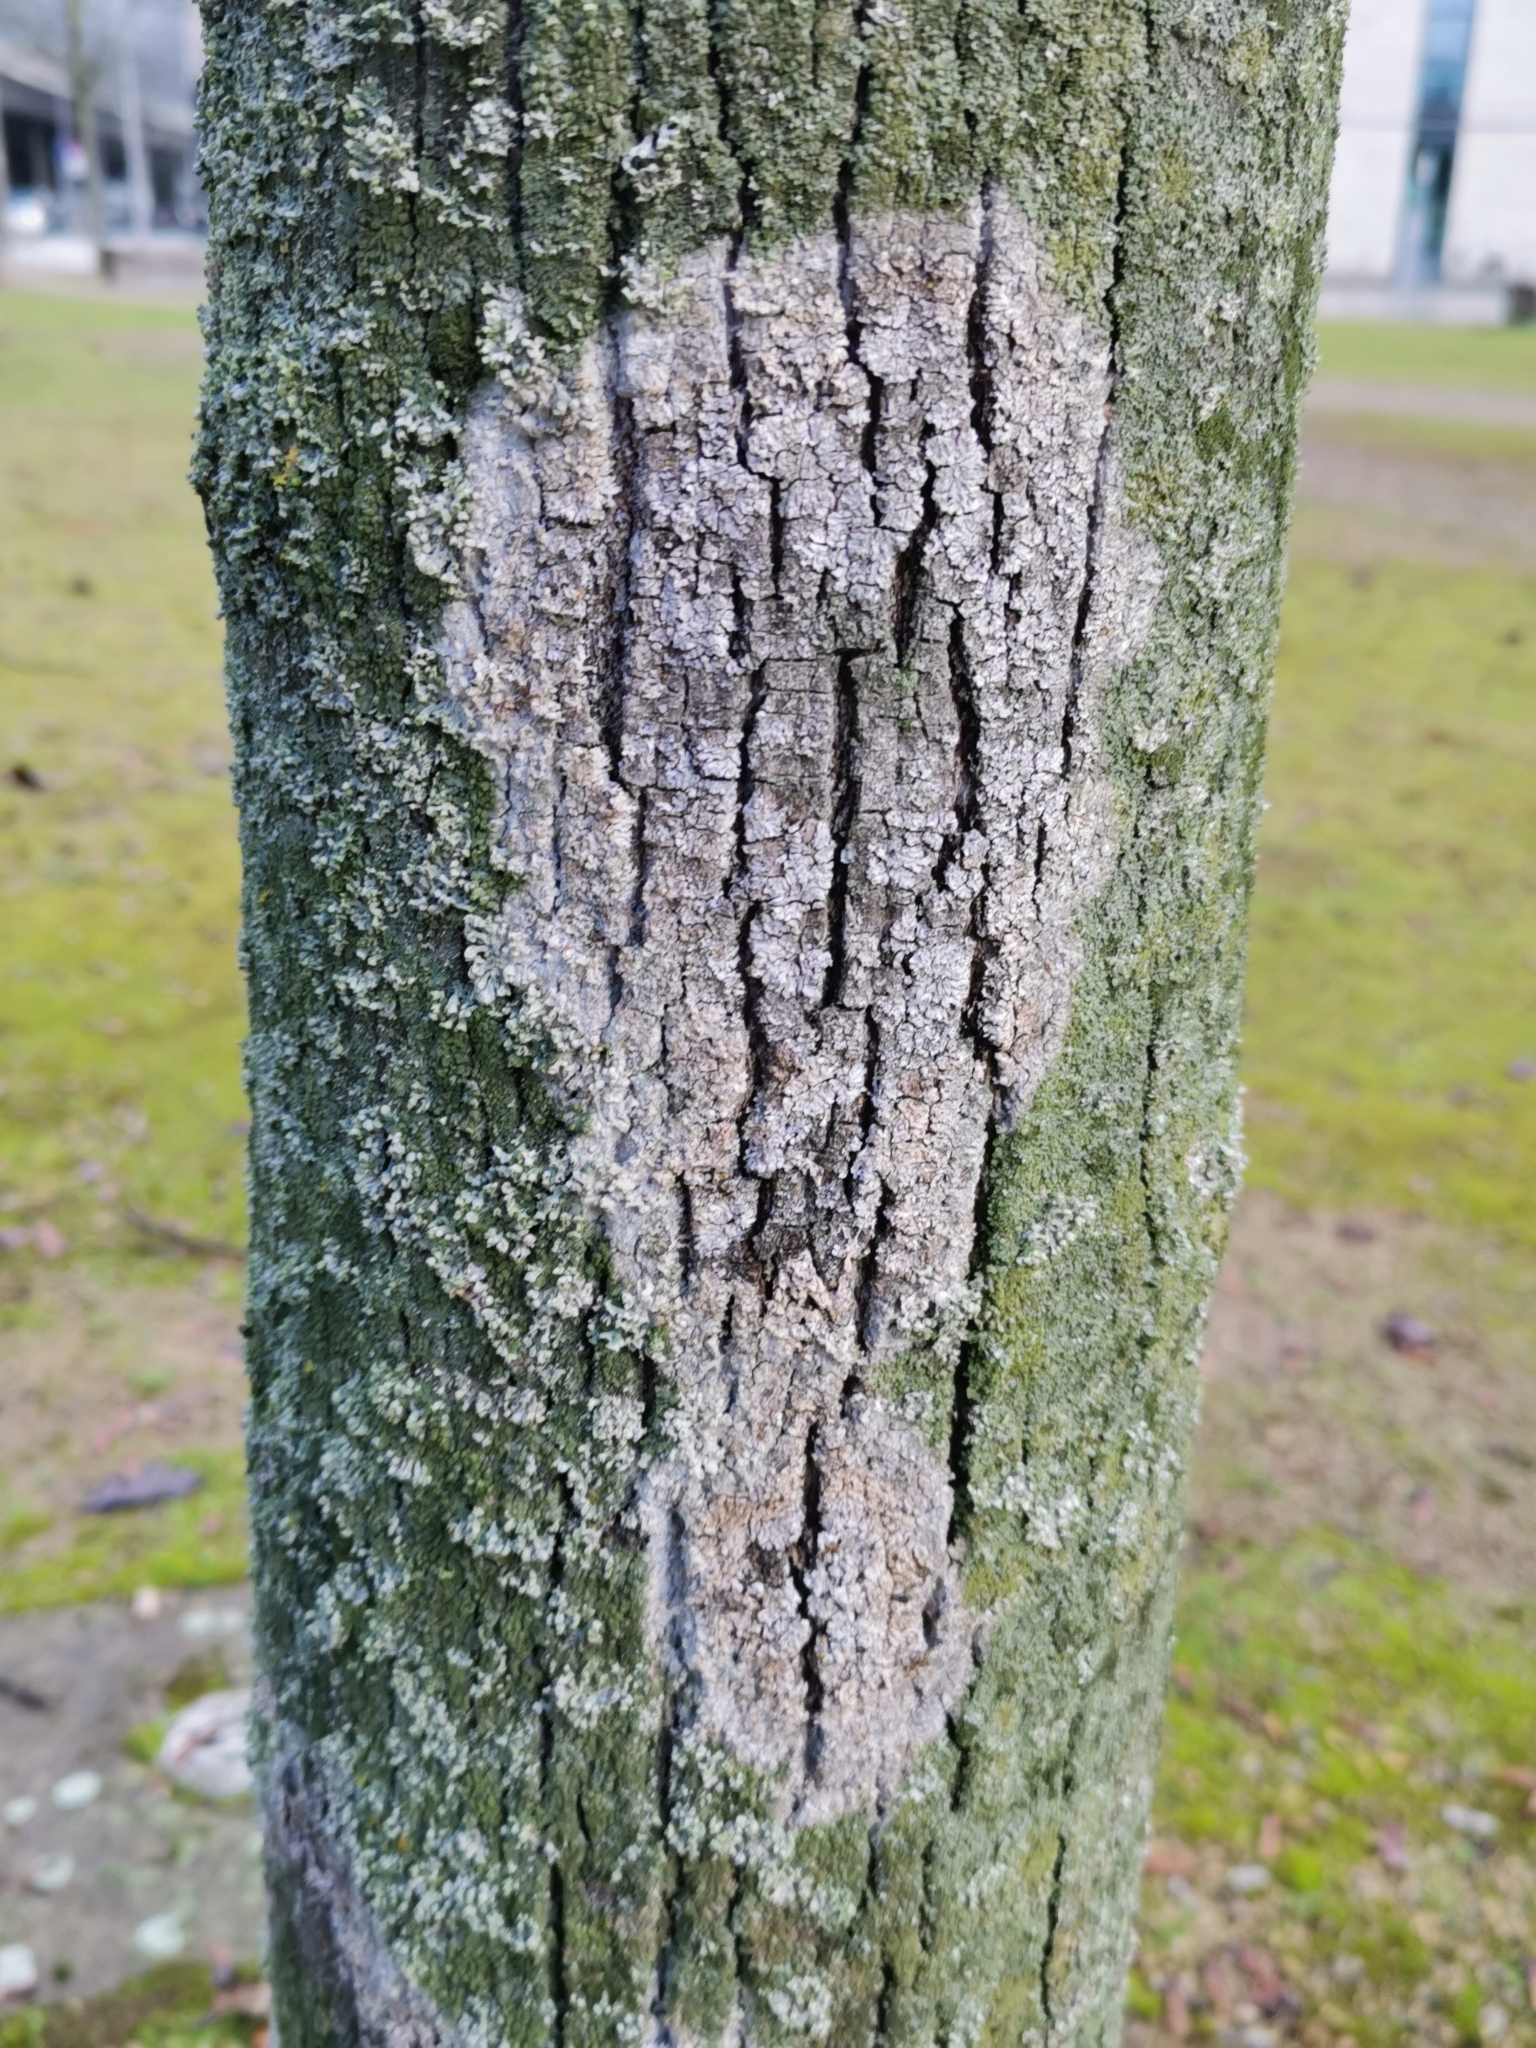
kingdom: Fungi
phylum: Basidiomycota
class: Agaricomycetes
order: Atheliales
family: Atheliaceae
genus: Athelia
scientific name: Athelia arachnoidea
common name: Candelabra duster
